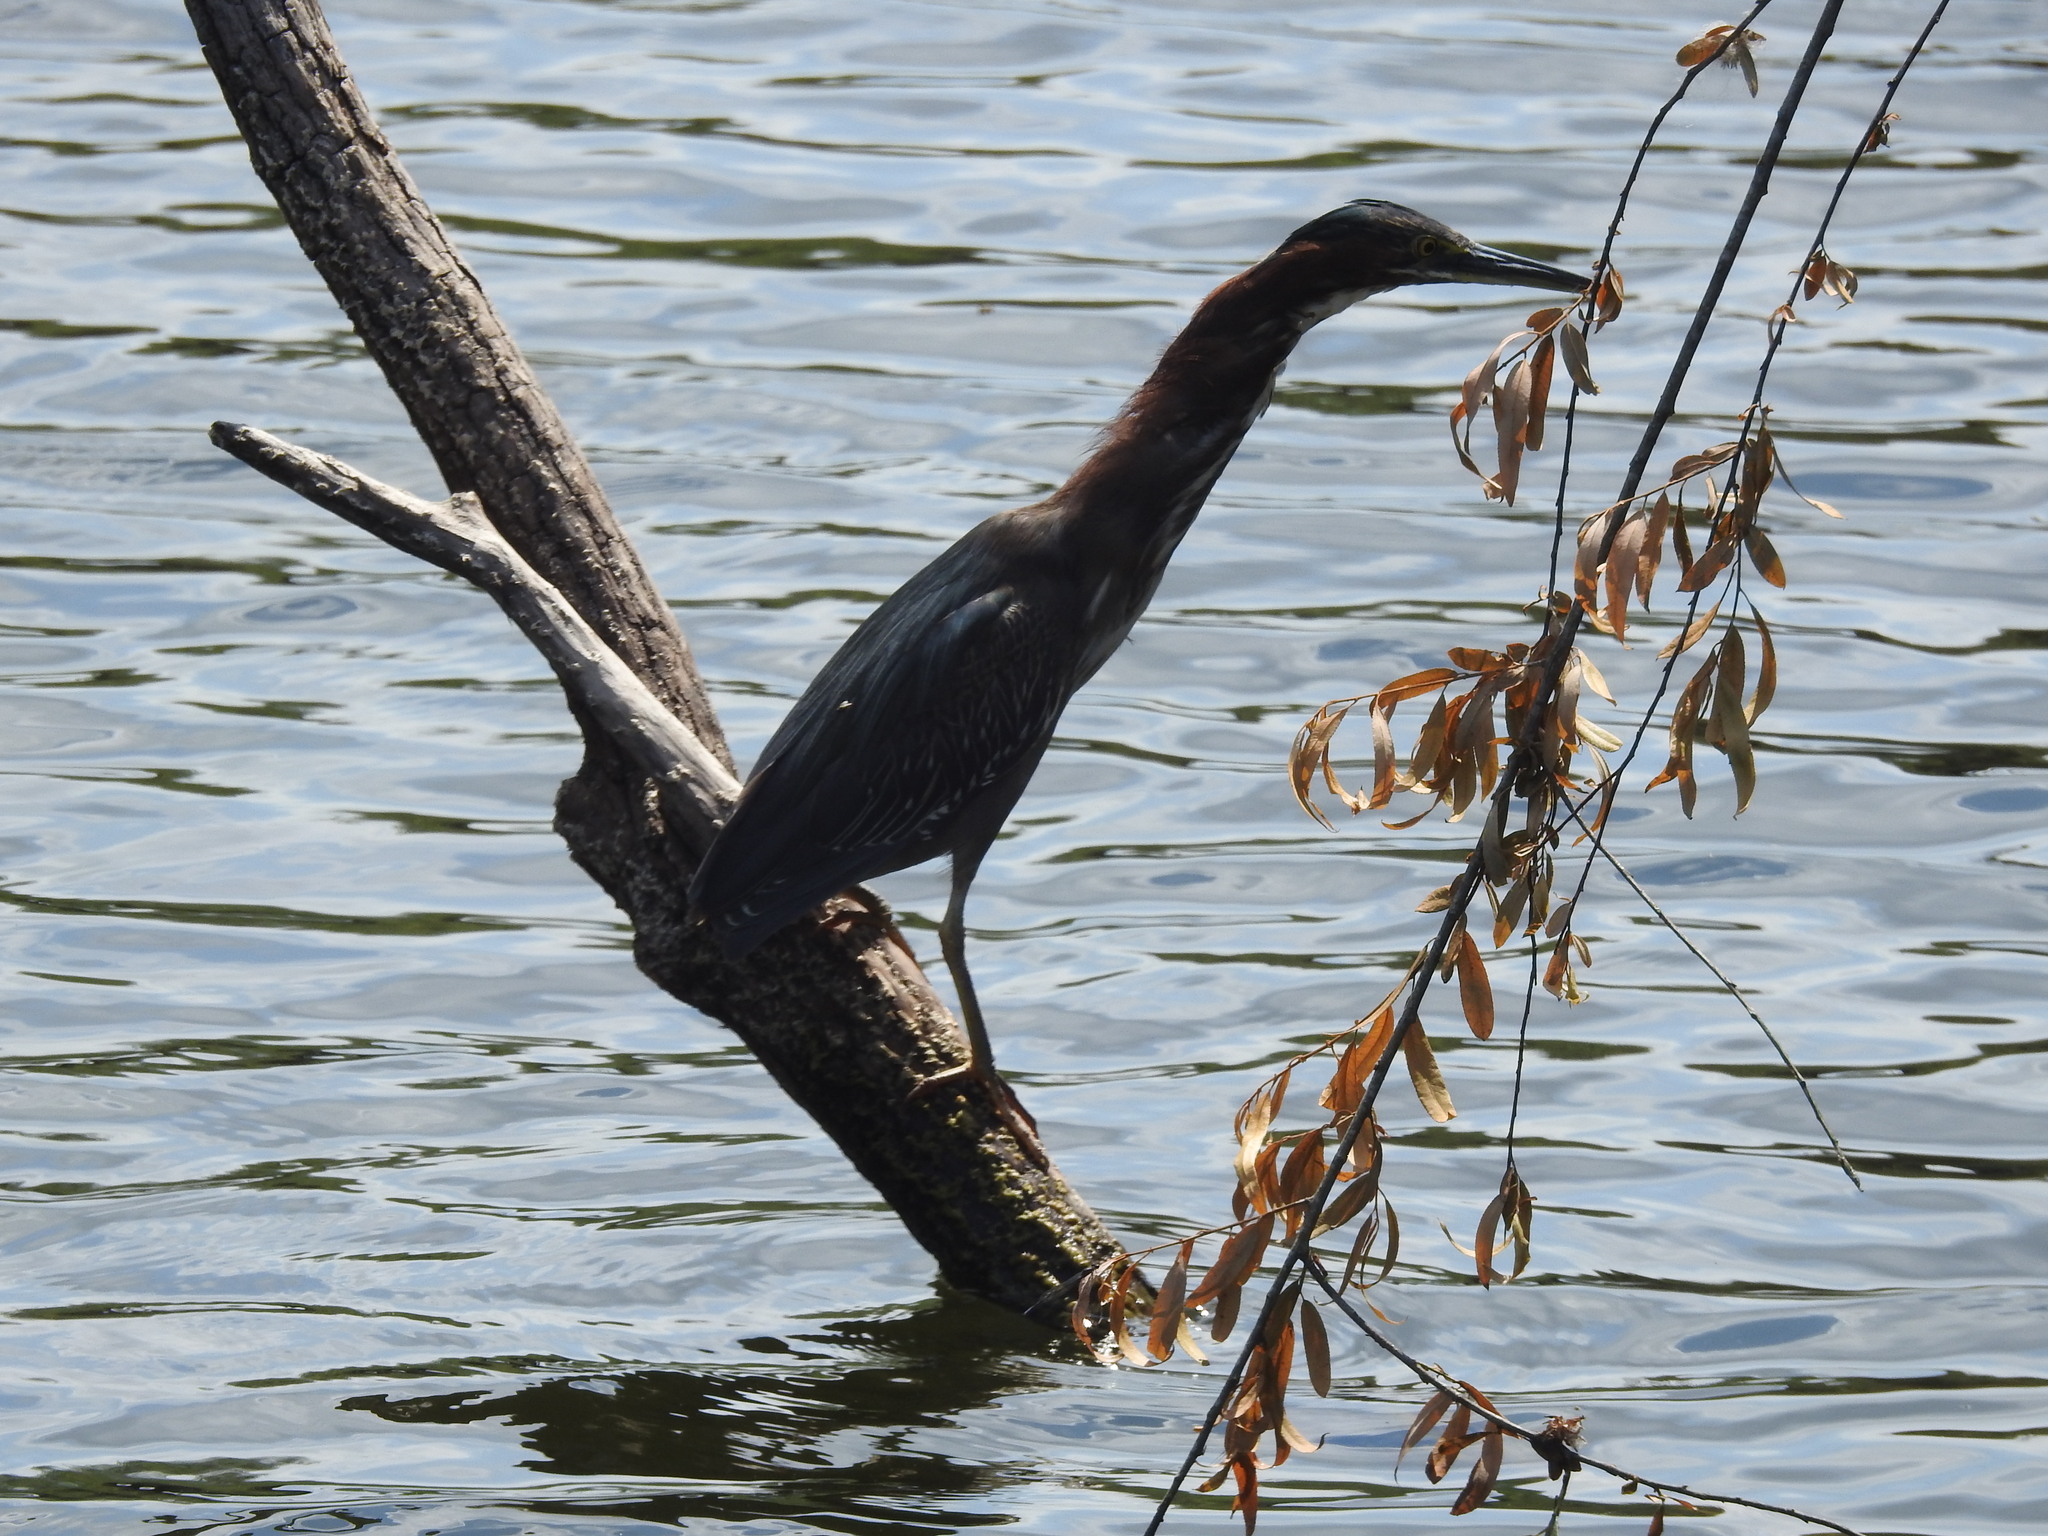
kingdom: Animalia
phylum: Chordata
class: Aves
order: Pelecaniformes
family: Ardeidae
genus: Butorides
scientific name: Butorides virescens
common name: Green heron
